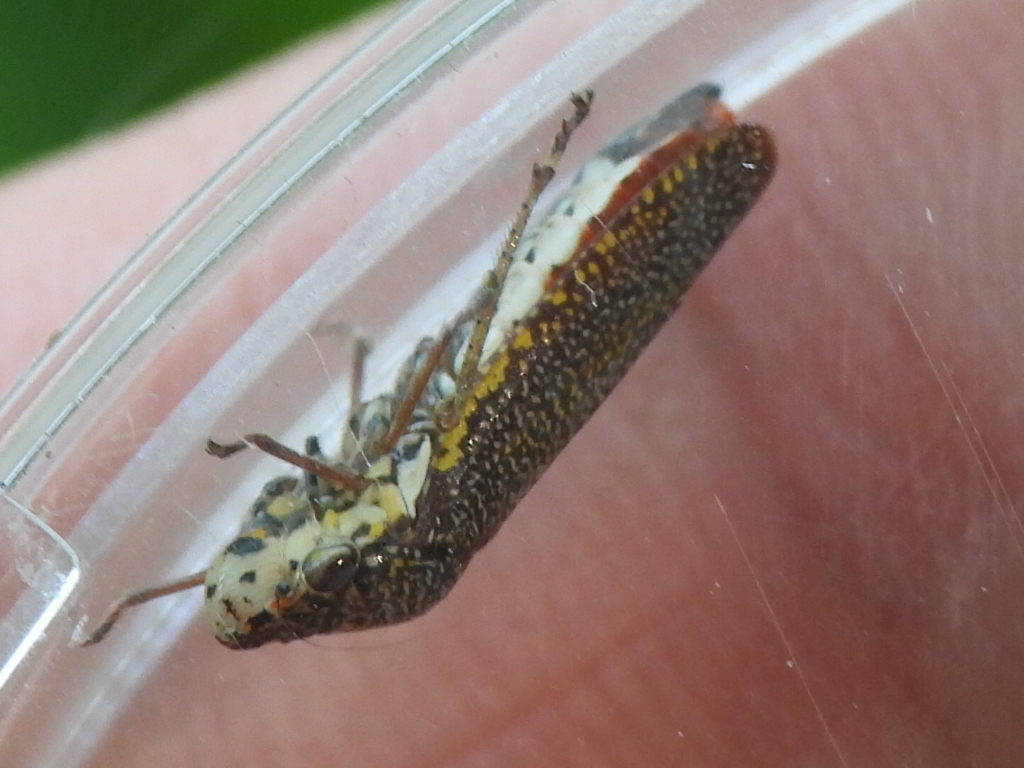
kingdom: Animalia
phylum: Arthropoda
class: Insecta
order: Hemiptera
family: Cicadellidae
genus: Paraulacizes
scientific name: Paraulacizes irrorata
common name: Speckled sharpshooter
